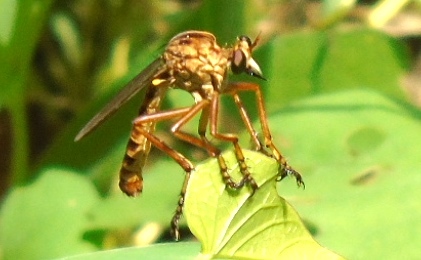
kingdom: Animalia
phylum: Arthropoda
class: Insecta
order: Diptera
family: Asilidae
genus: Diogmites
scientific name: Diogmites
